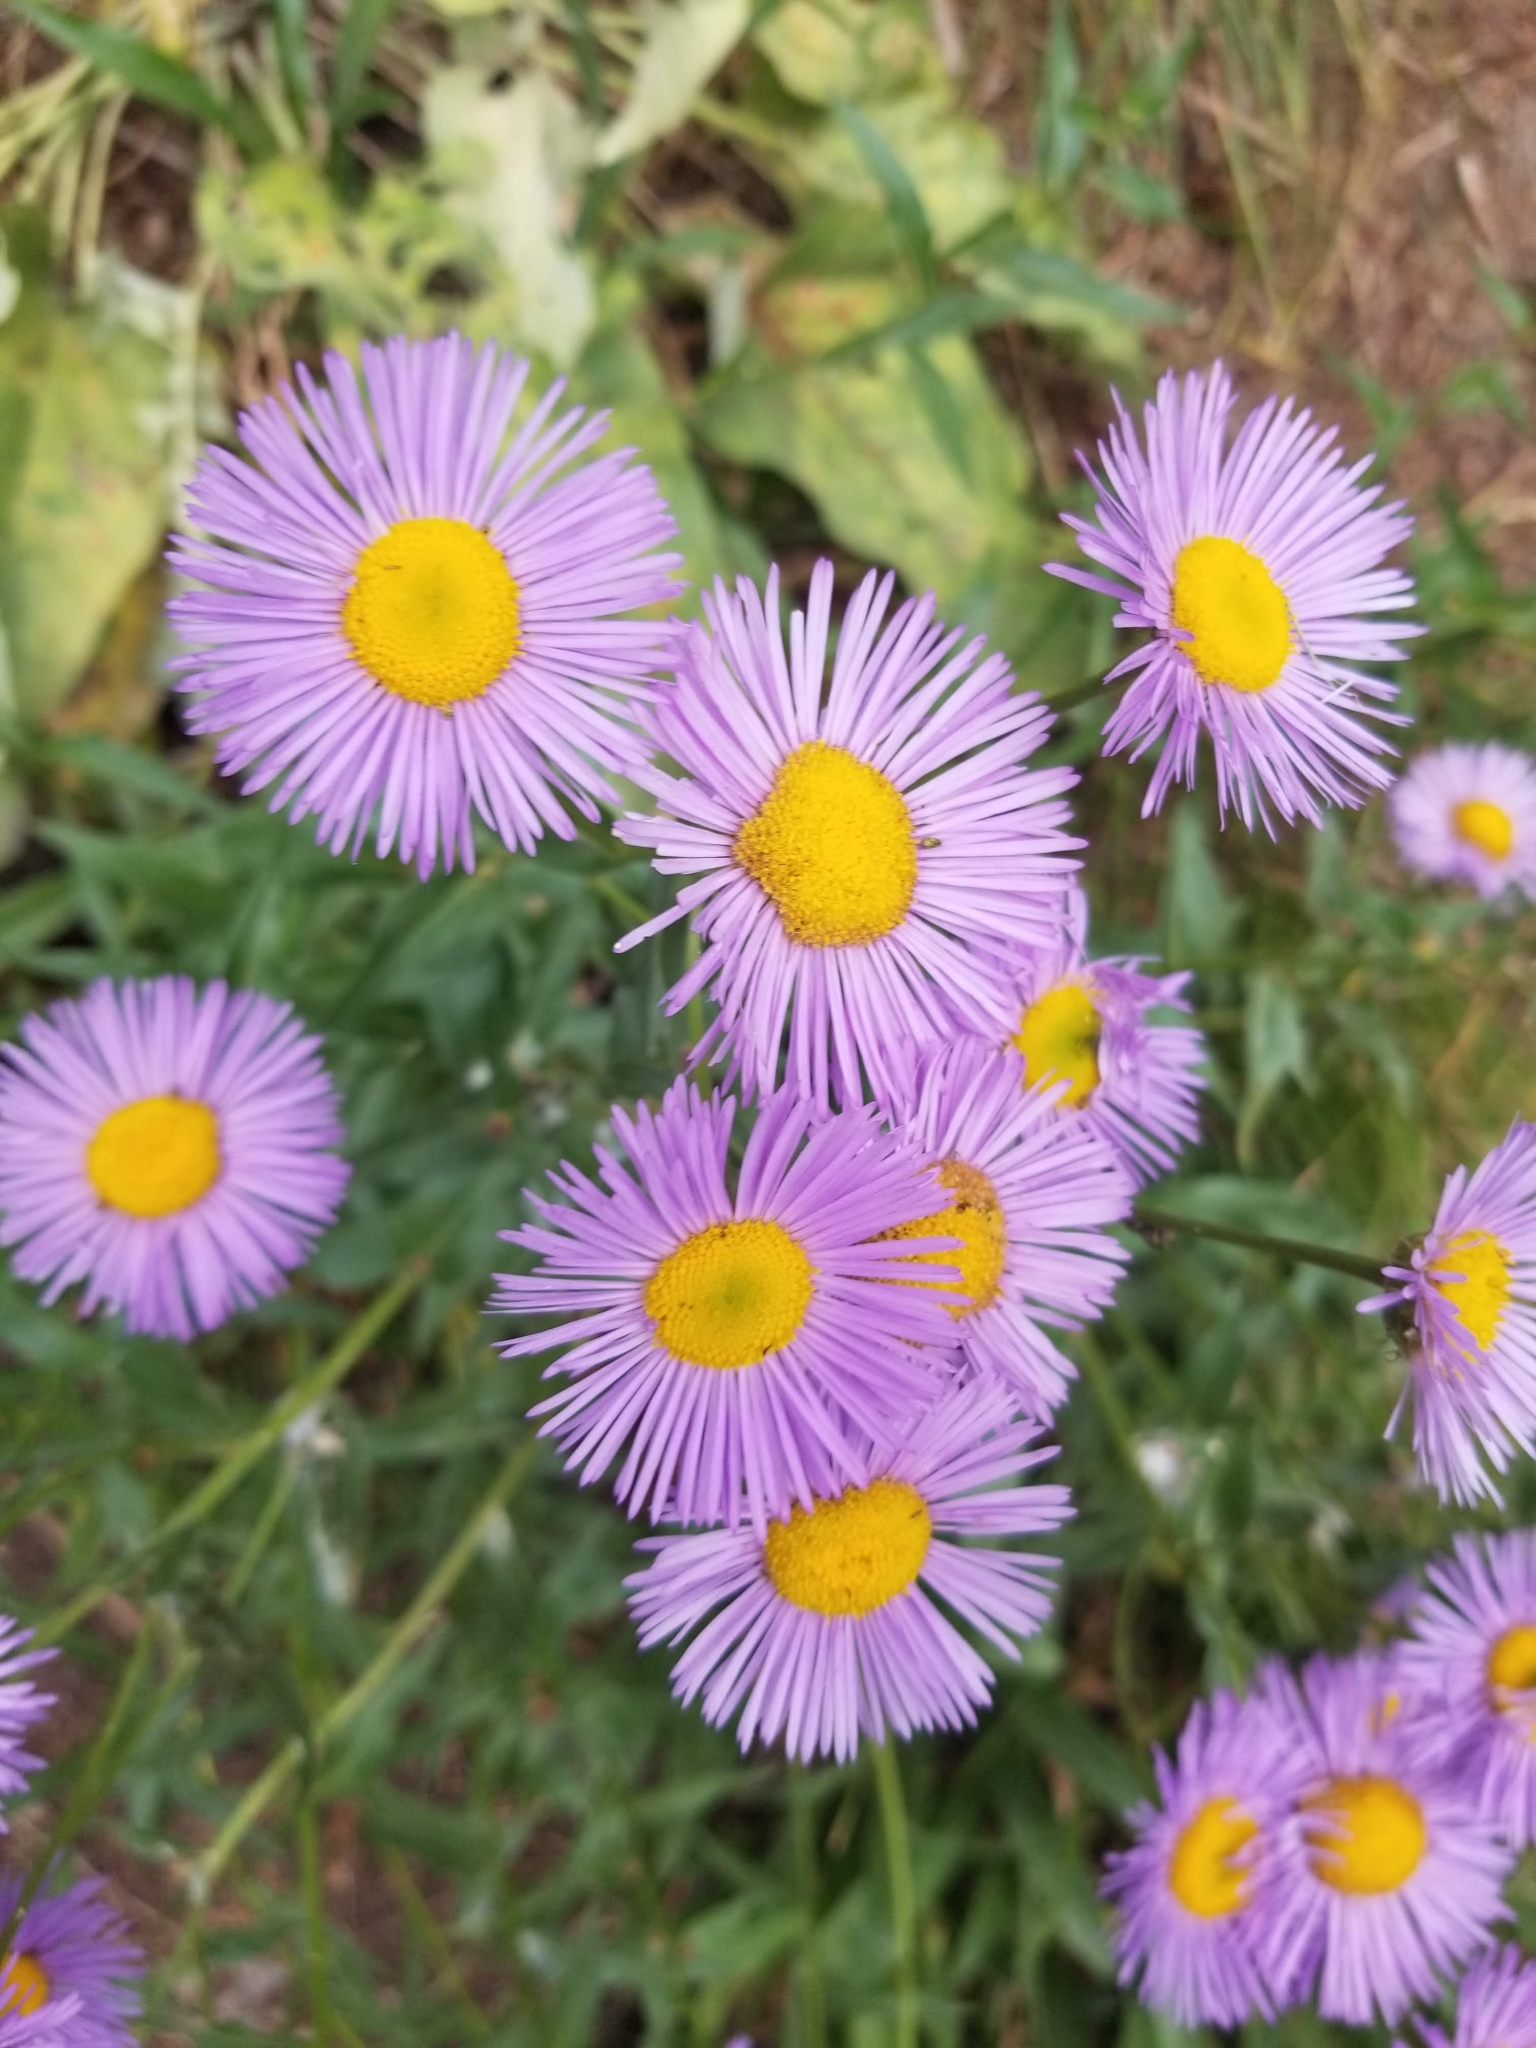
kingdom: Plantae
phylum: Tracheophyta
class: Magnoliopsida
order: Asterales
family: Asteraceae
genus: Erigeron
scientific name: Erigeron speciosus
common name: Aspen fleabane
